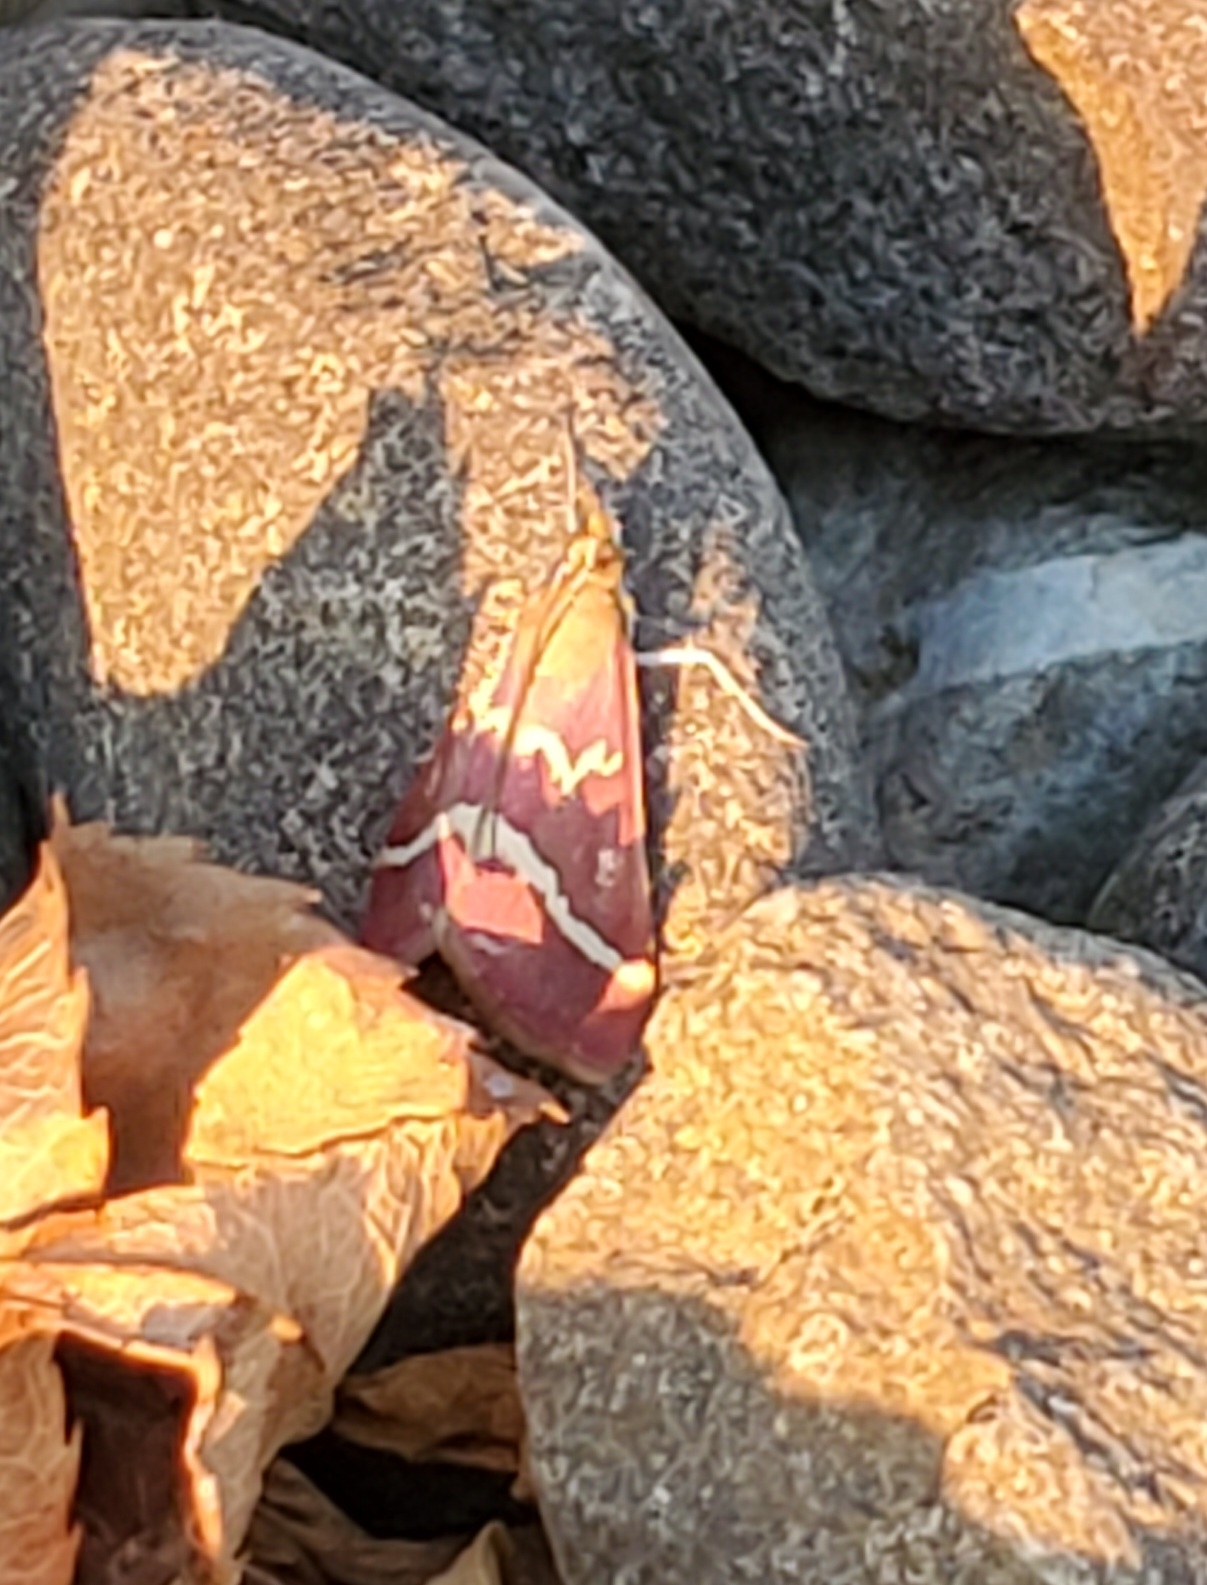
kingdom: Animalia
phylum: Arthropoda
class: Insecta
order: Lepidoptera
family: Crambidae
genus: Pyrausta
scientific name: Pyrausta volupialis
